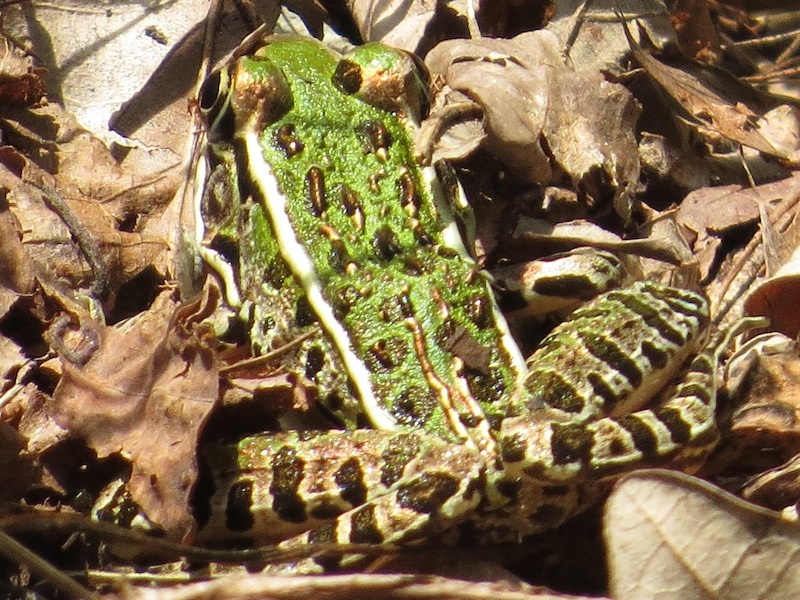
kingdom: Animalia
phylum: Chordata
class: Amphibia
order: Anura
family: Ranidae
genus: Lithobates
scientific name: Lithobates pipiens
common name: Northern leopard frog
